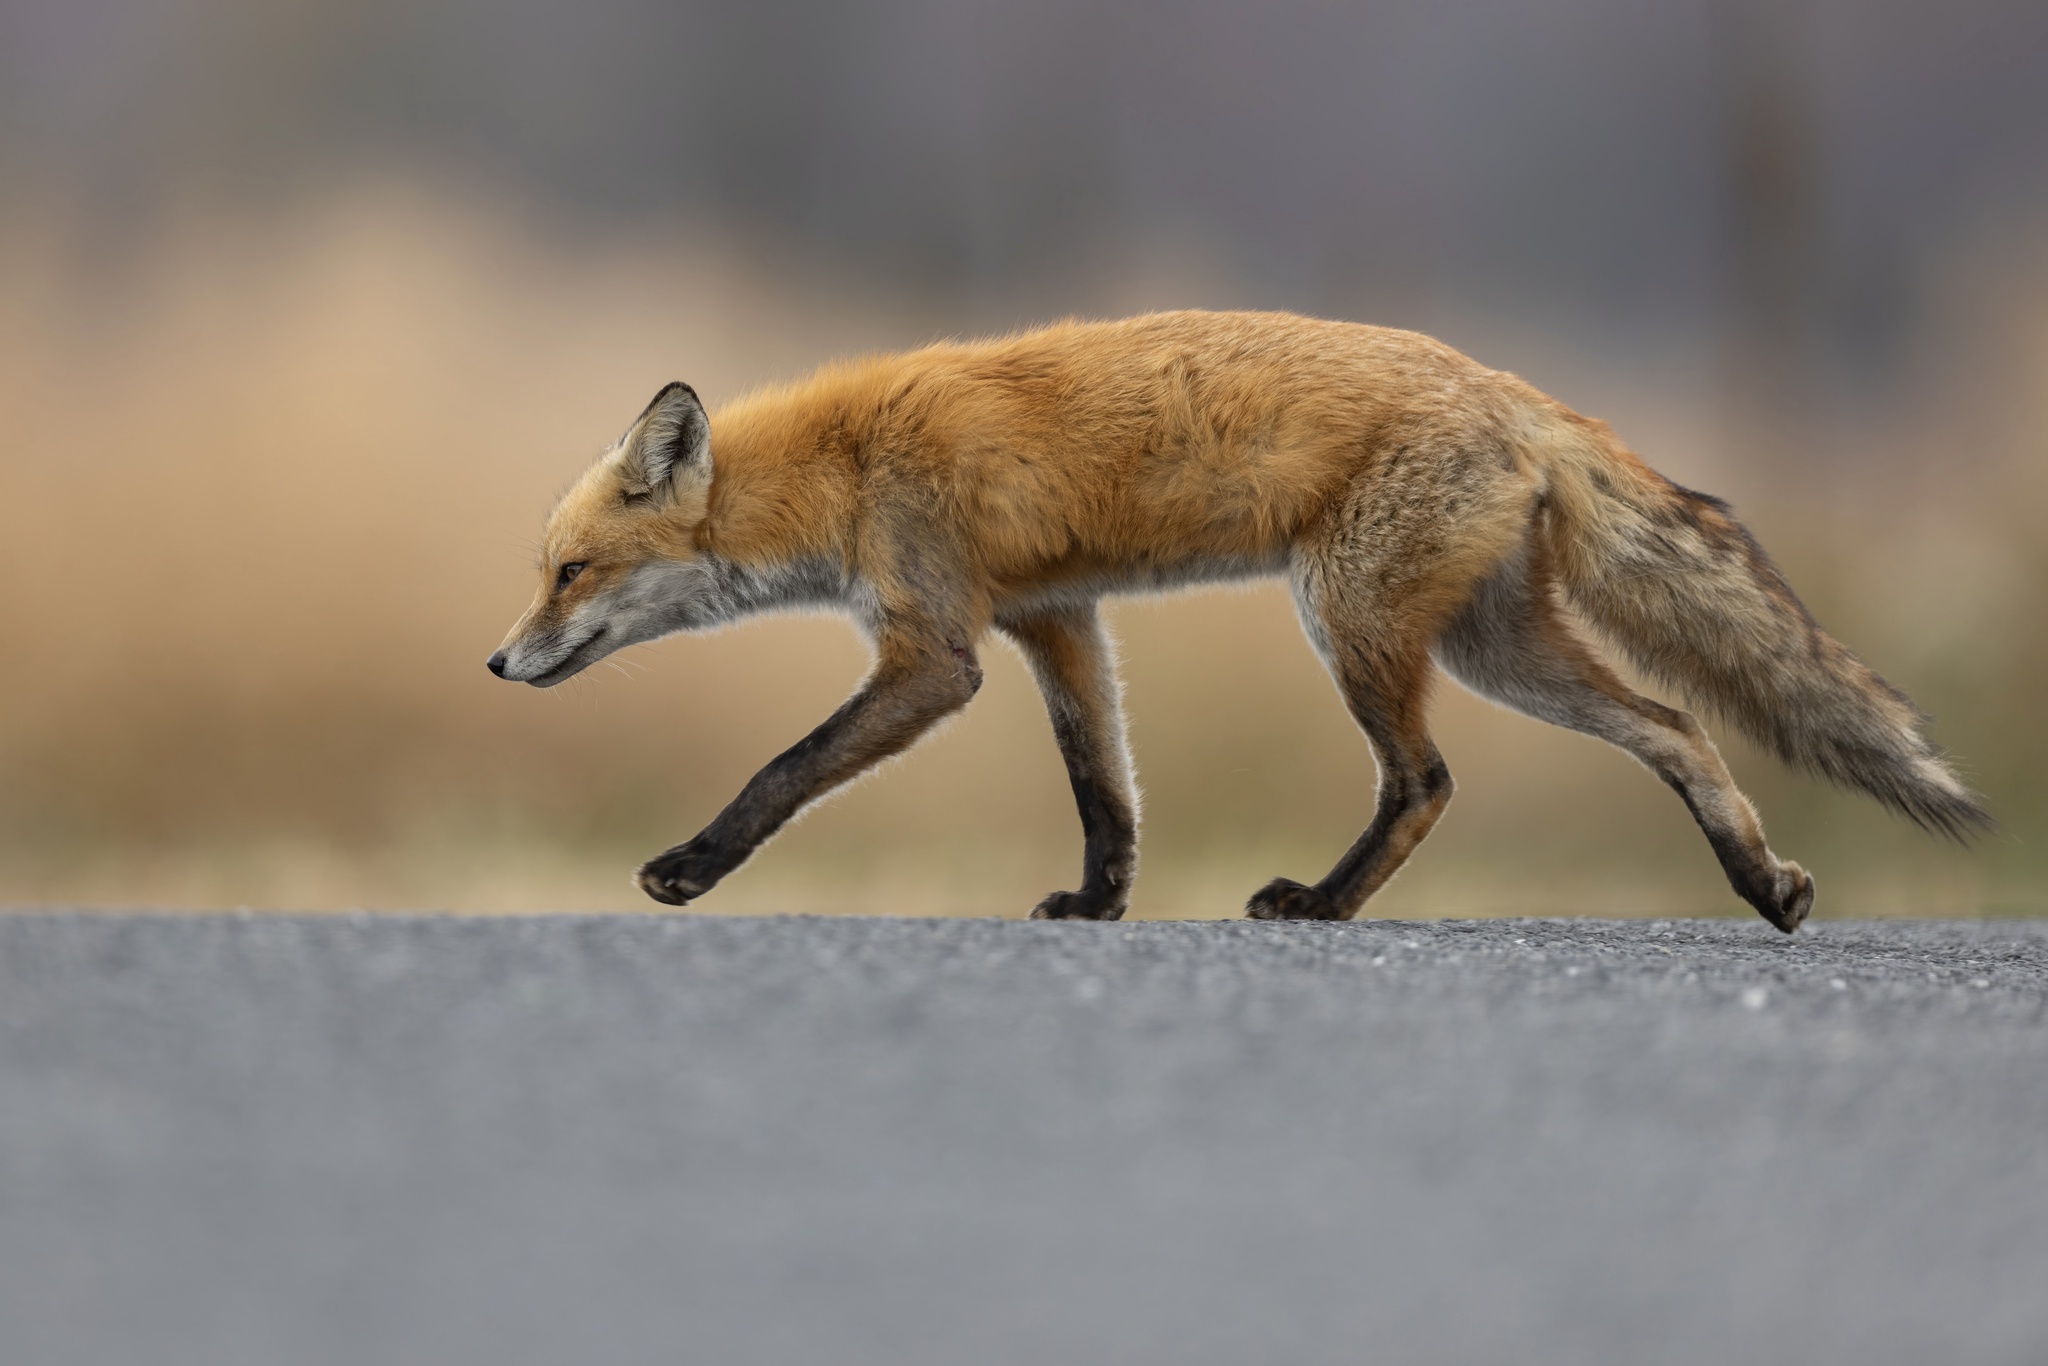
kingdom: Animalia
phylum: Chordata
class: Mammalia
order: Carnivora
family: Canidae
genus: Vulpes
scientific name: Vulpes vulpes
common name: Red fox
